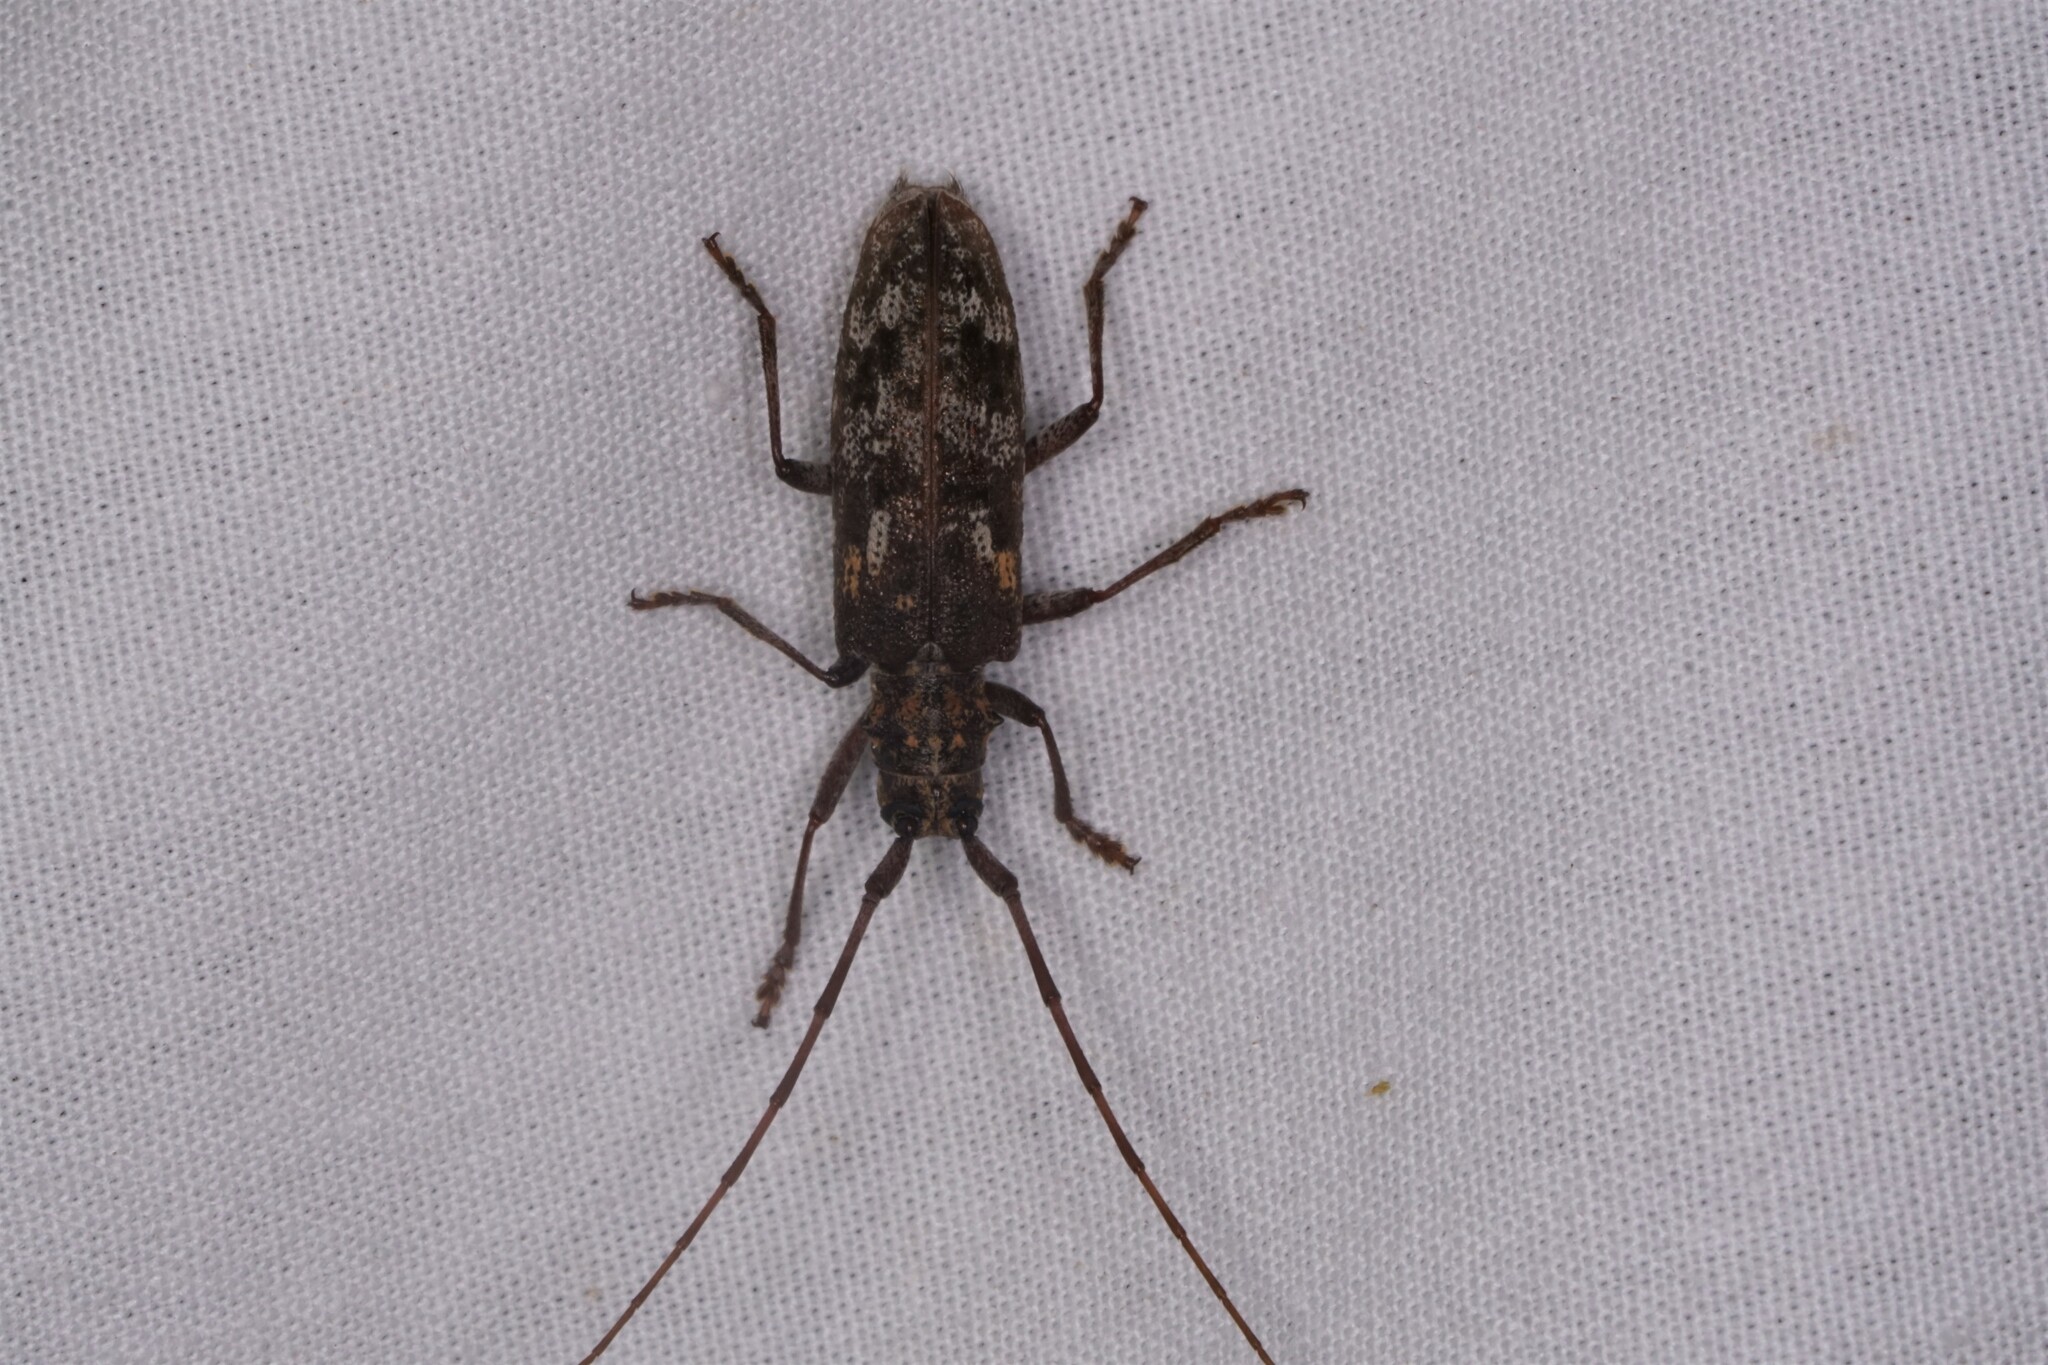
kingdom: Animalia
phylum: Arthropoda
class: Insecta
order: Coleoptera
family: Cerambycidae
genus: Monochamus
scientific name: Monochamus carolinensis
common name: Carolina pine sawyer
